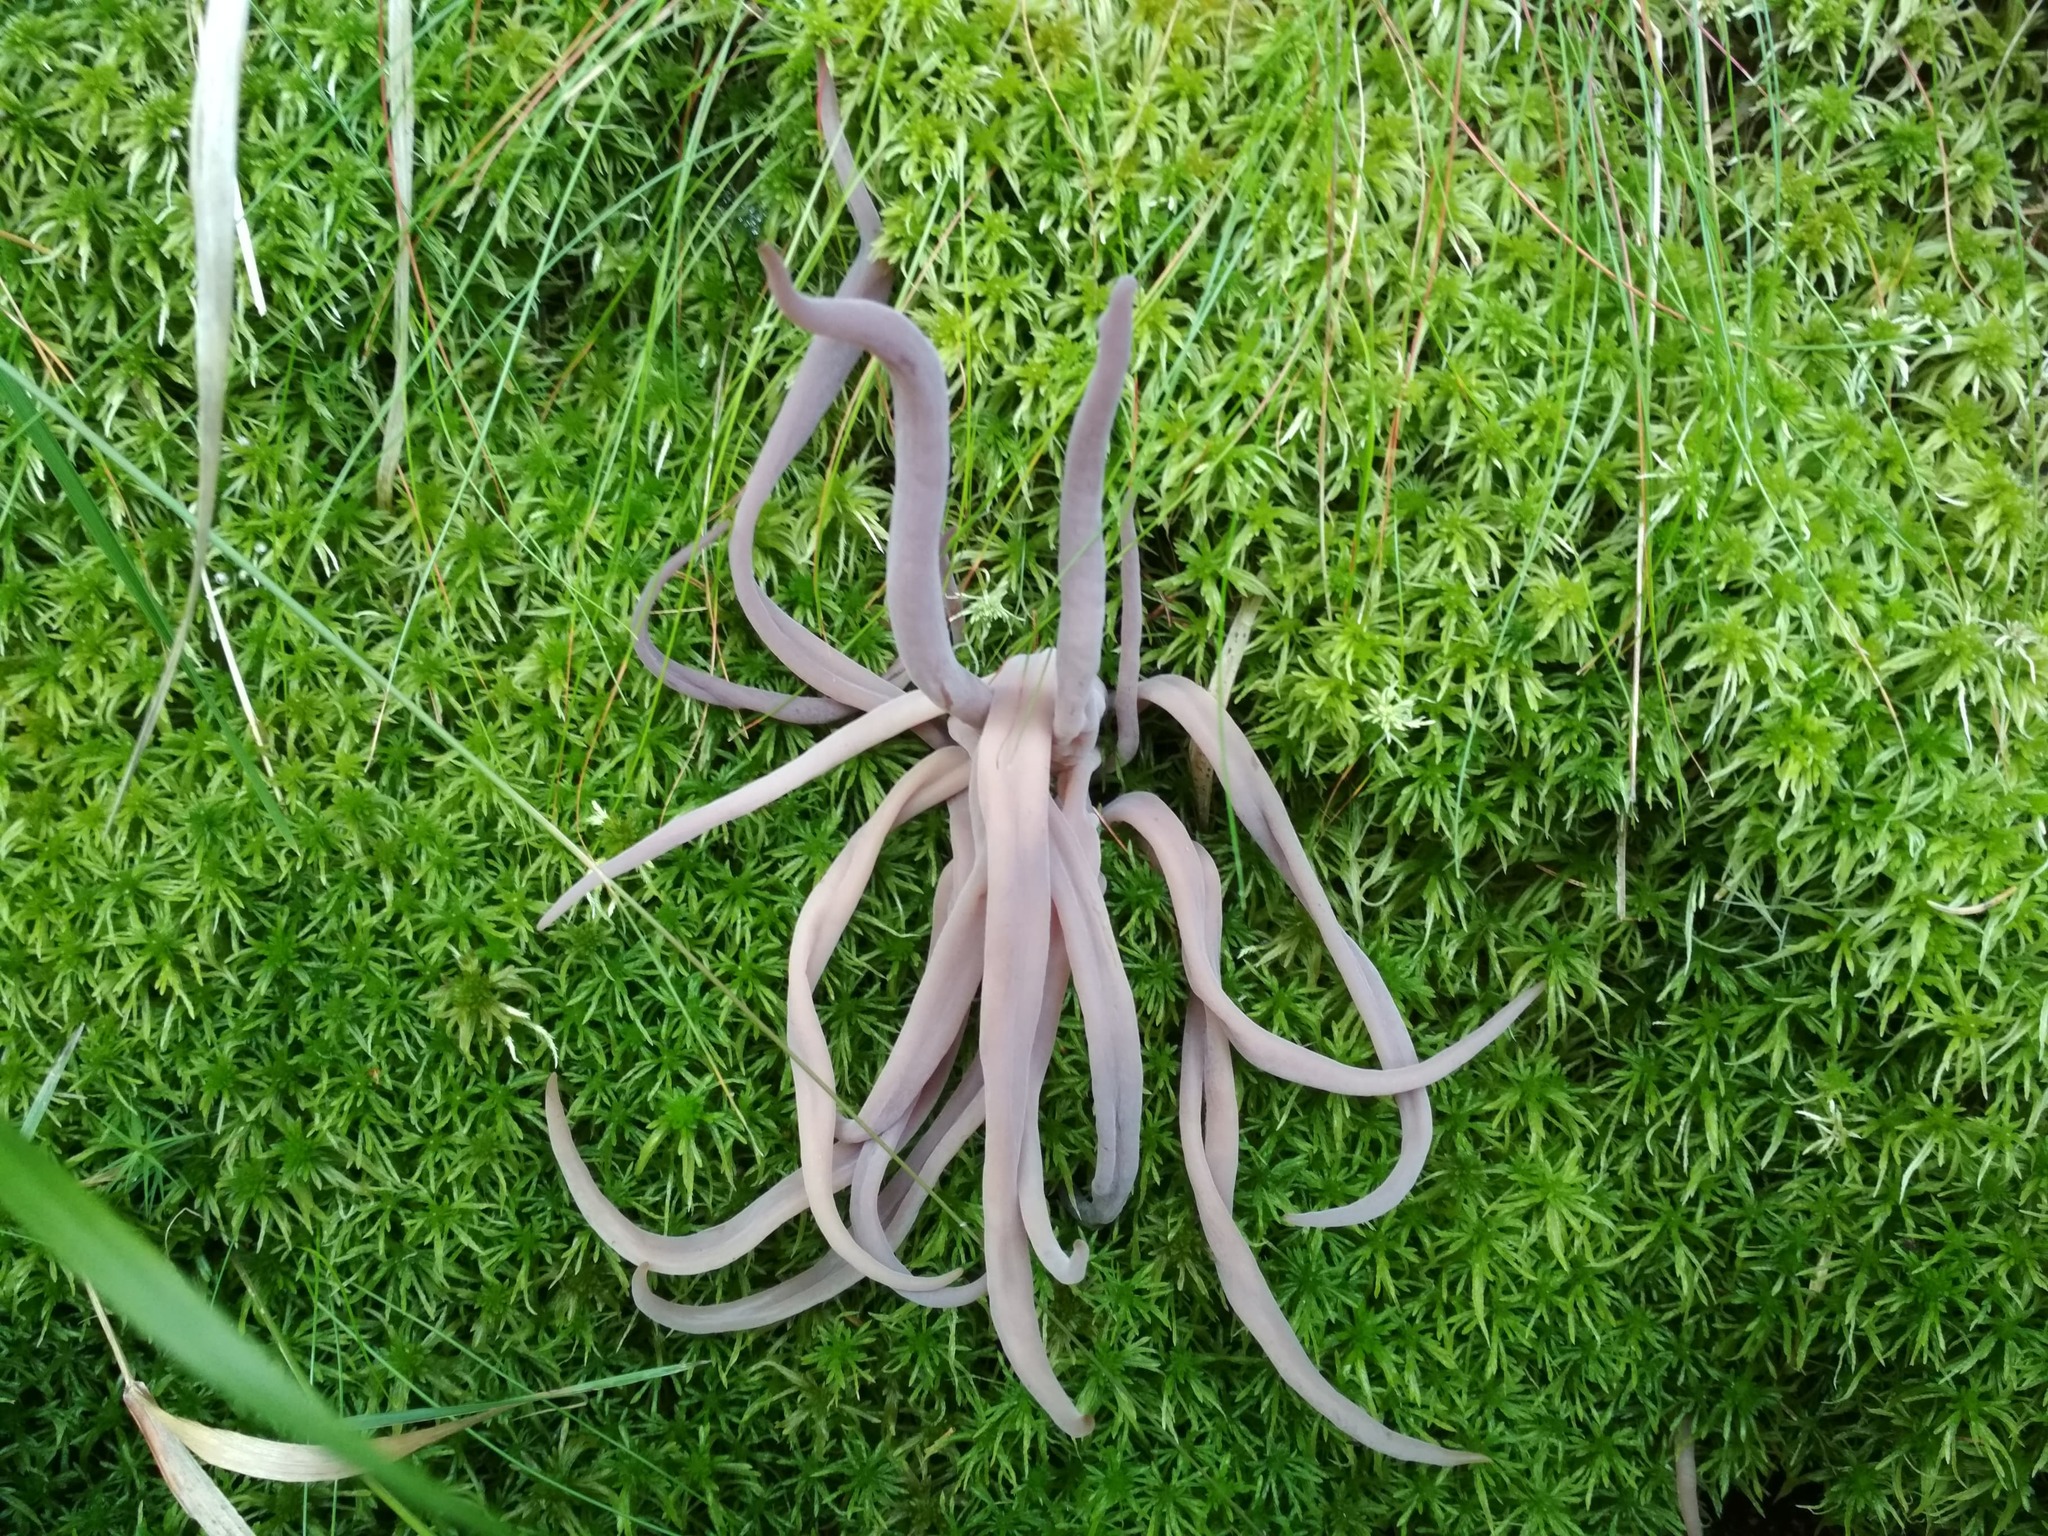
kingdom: Fungi
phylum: Basidiomycota
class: Agaricomycetes
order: Hymenochaetales
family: Rickenellaceae
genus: Alloclavaria
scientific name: Alloclavaria purpurea
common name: Purple spindles
